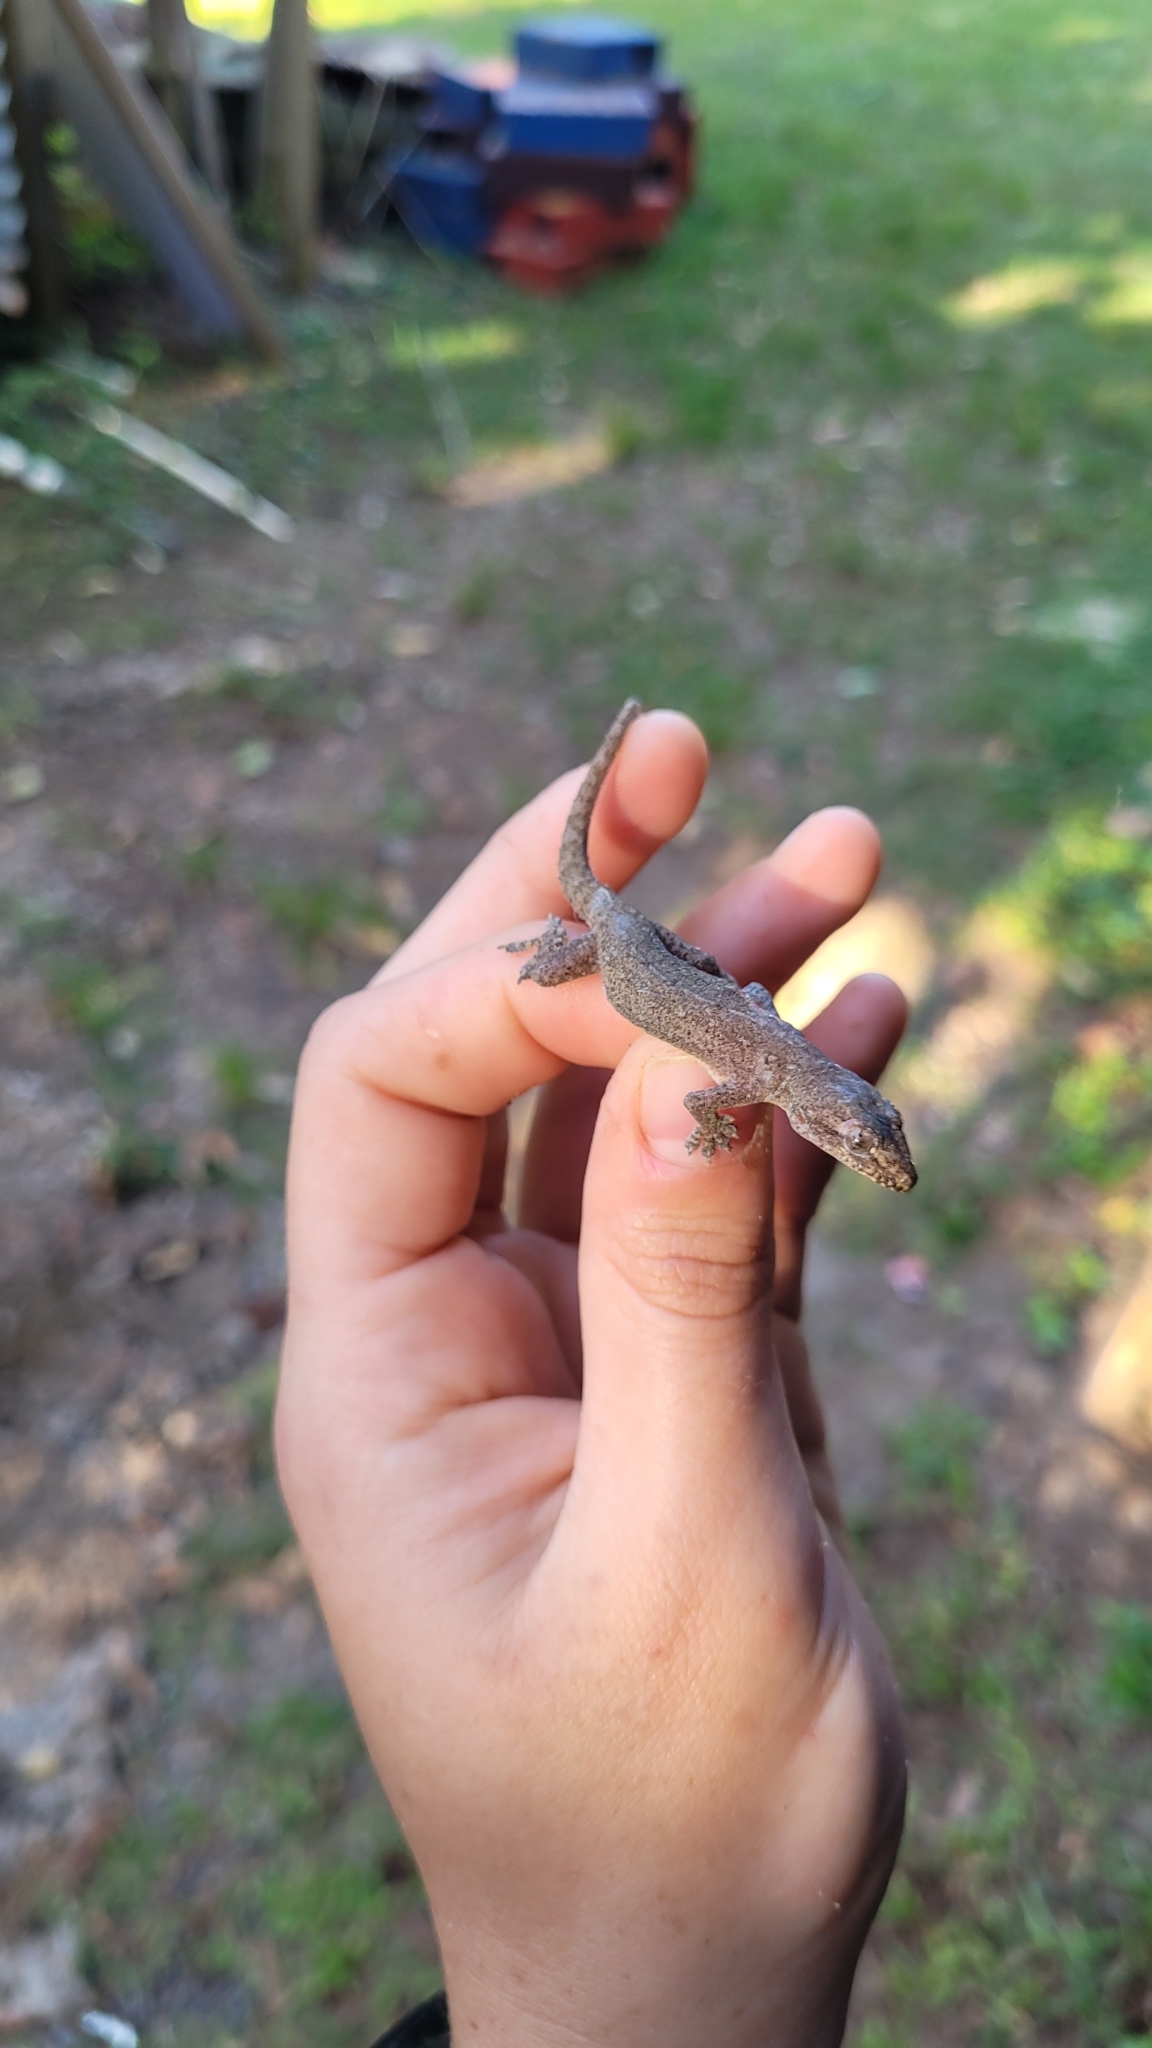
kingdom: Animalia
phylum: Chordata
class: Squamata
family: Gekkonidae
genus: Hemidactylus
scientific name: Hemidactylus frenatus
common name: Common house gecko
